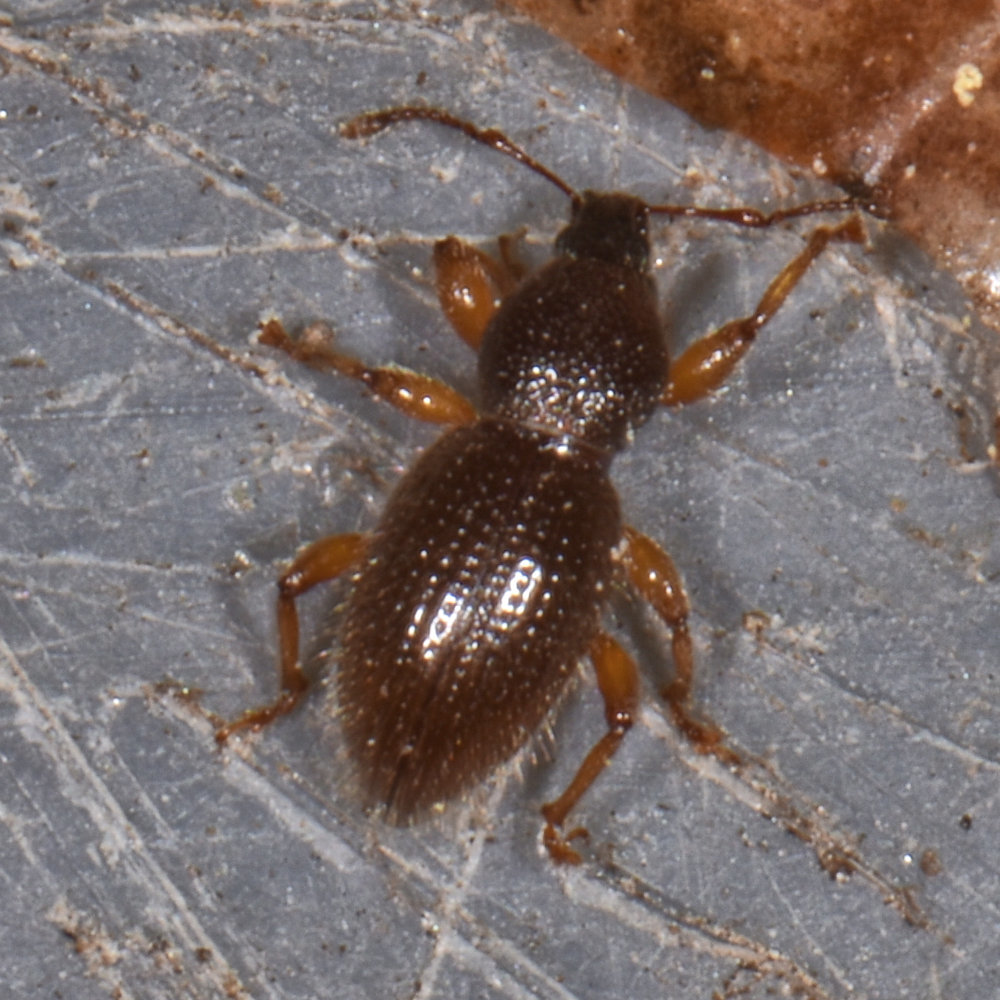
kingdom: Animalia
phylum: Arthropoda
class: Insecta
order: Coleoptera
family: Curculionidae
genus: Exomias
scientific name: Exomias pellucidus
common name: Hairy spider weevil
